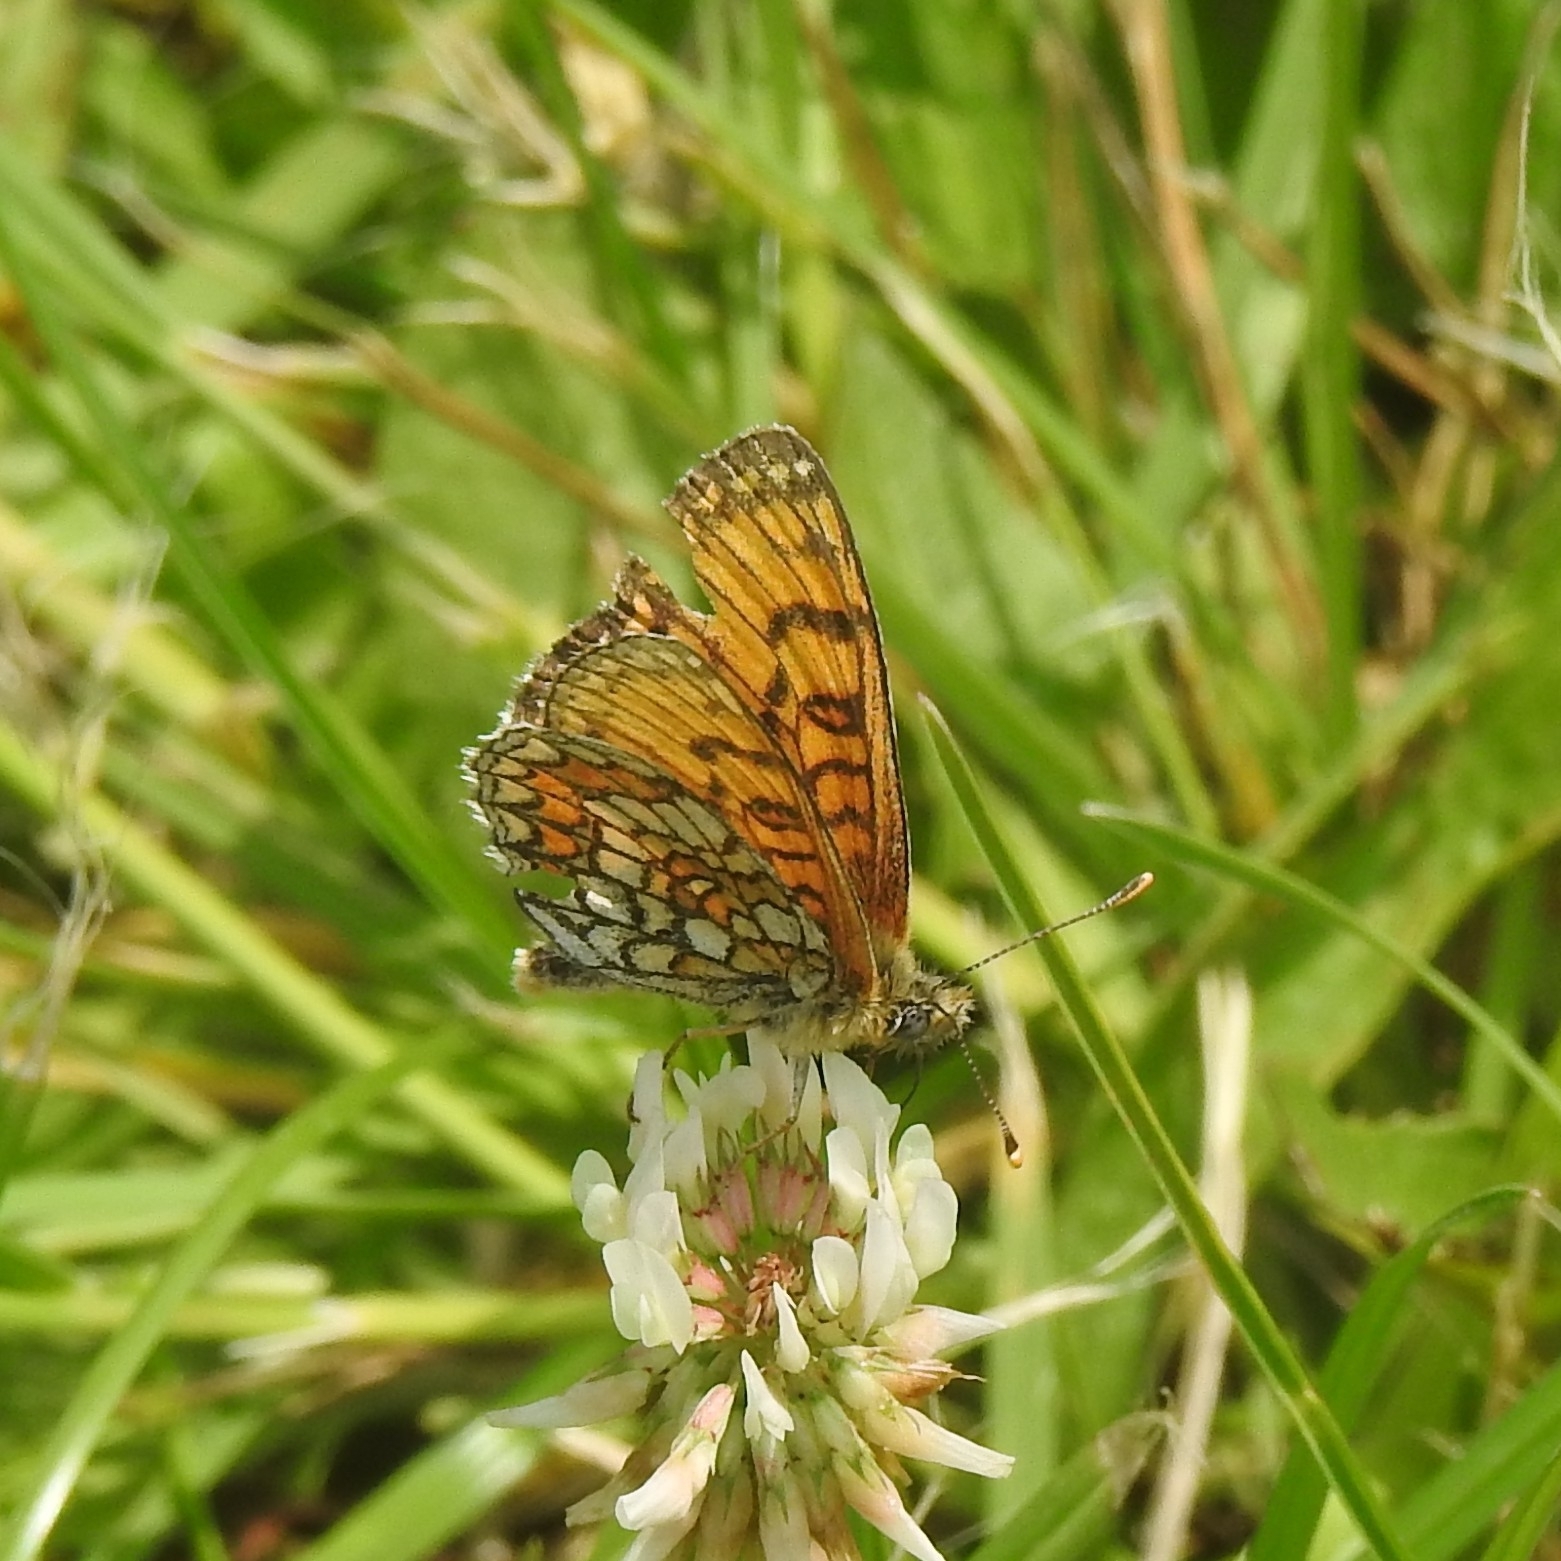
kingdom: Animalia
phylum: Arthropoda
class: Insecta
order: Lepidoptera
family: Nymphalidae
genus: Mellicta
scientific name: Mellicta parthenoides
